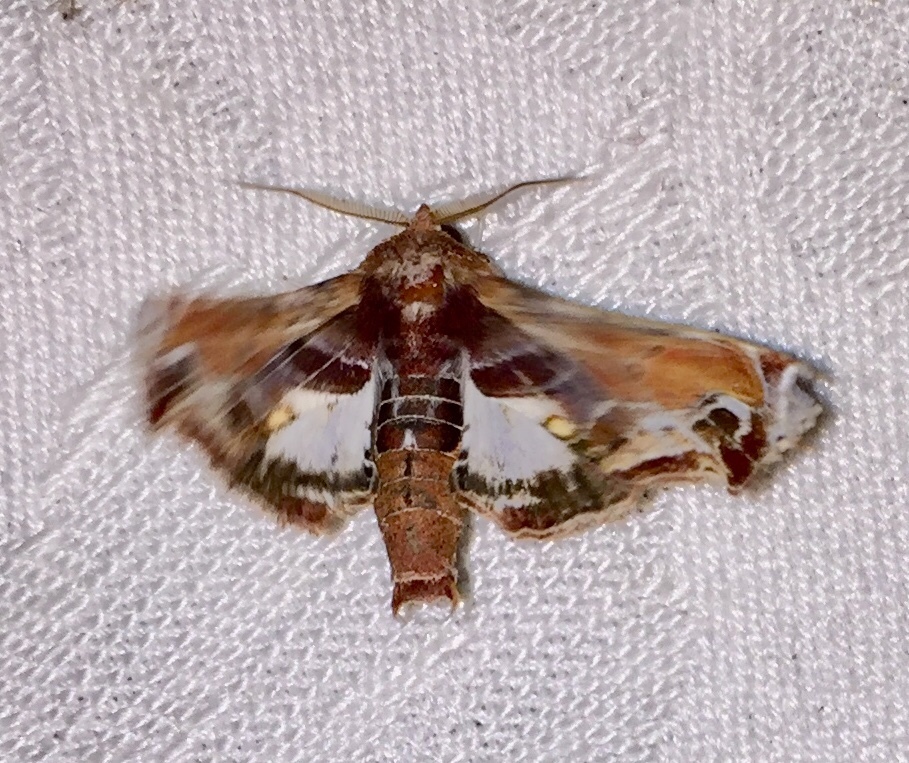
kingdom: Animalia
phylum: Arthropoda
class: Insecta
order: Lepidoptera
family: Euteliidae
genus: Eutelia
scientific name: Eutelia pulcherrimus
